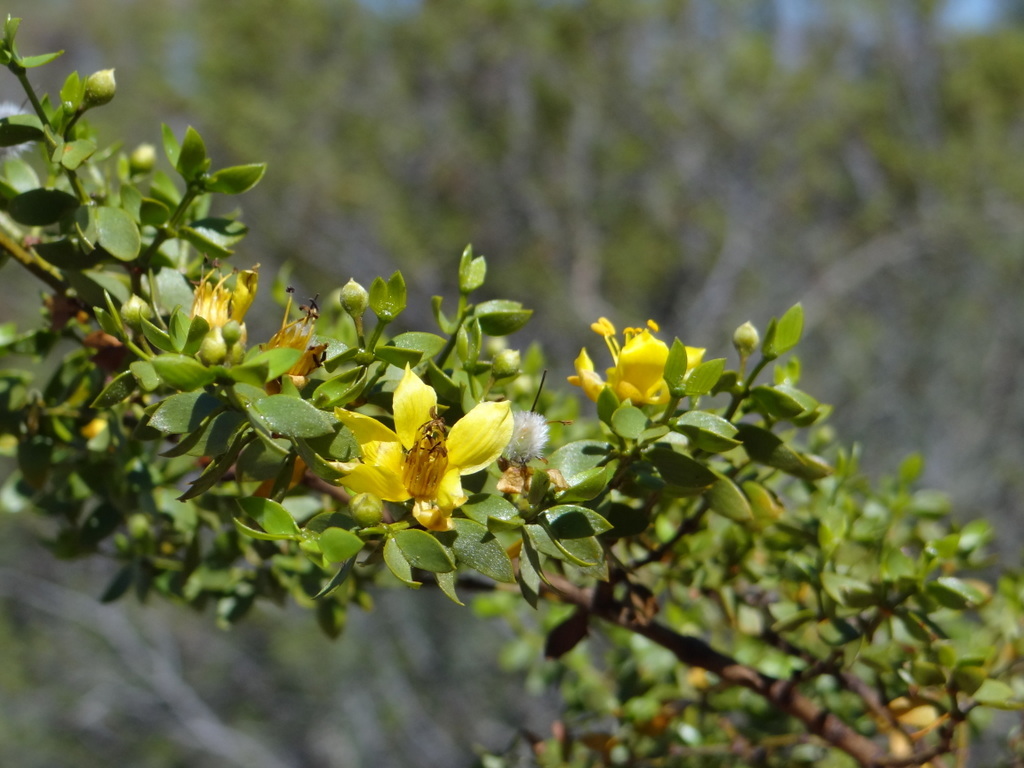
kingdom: Plantae
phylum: Tracheophyta
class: Magnoliopsida
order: Zygophyllales
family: Zygophyllaceae
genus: Larrea
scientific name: Larrea divaricata
